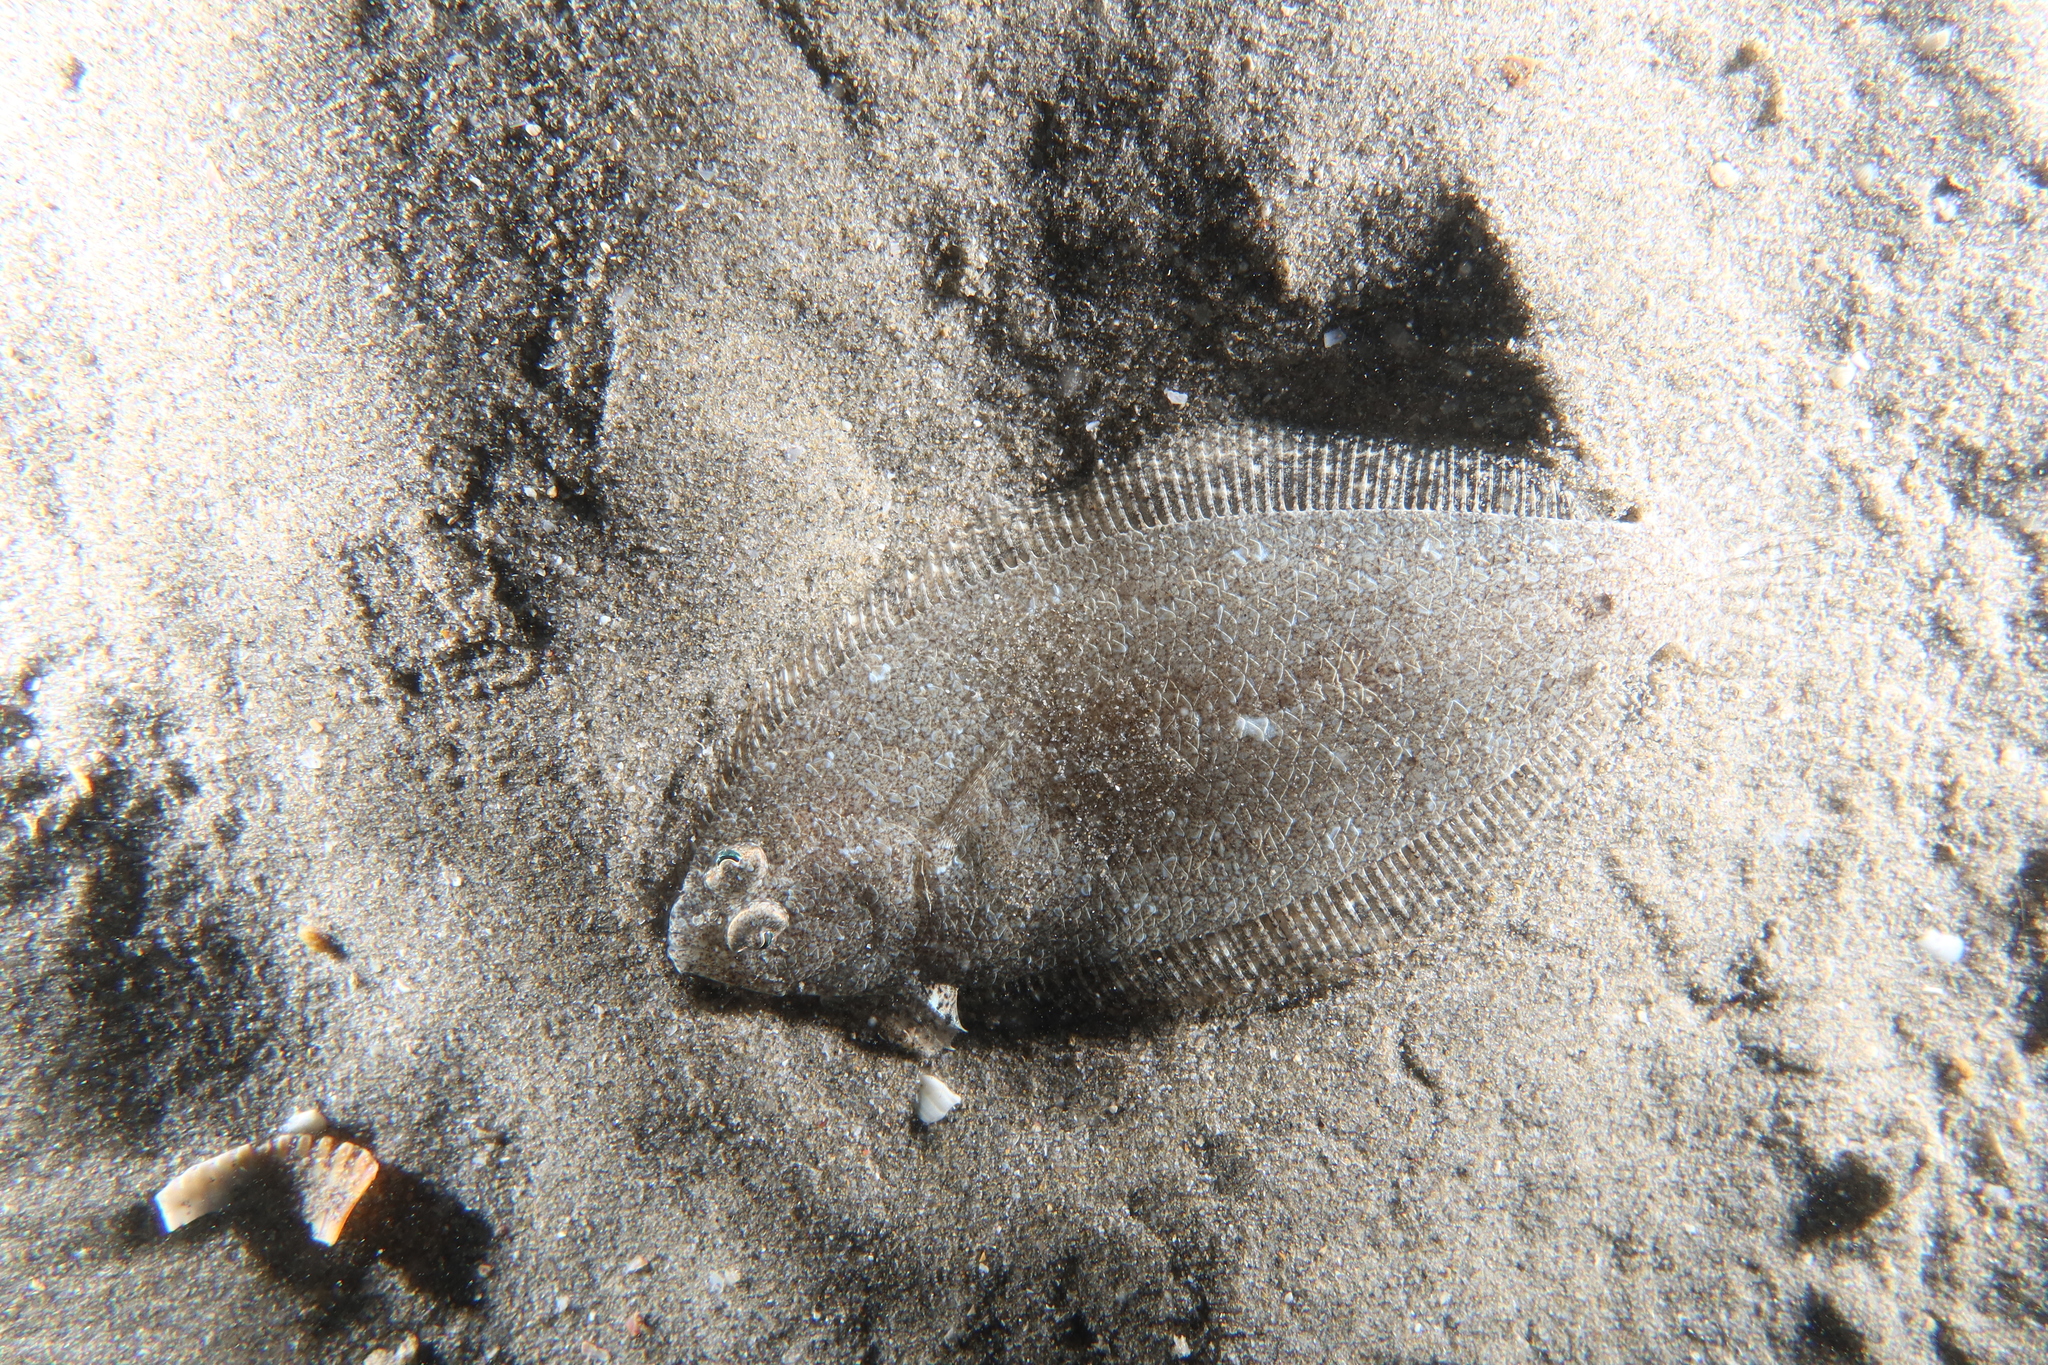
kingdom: Animalia
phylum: Chordata
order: Pleuronectiformes
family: Bothidae
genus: Arnoglossus
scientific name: Arnoglossus laterna
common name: Scaldfish
